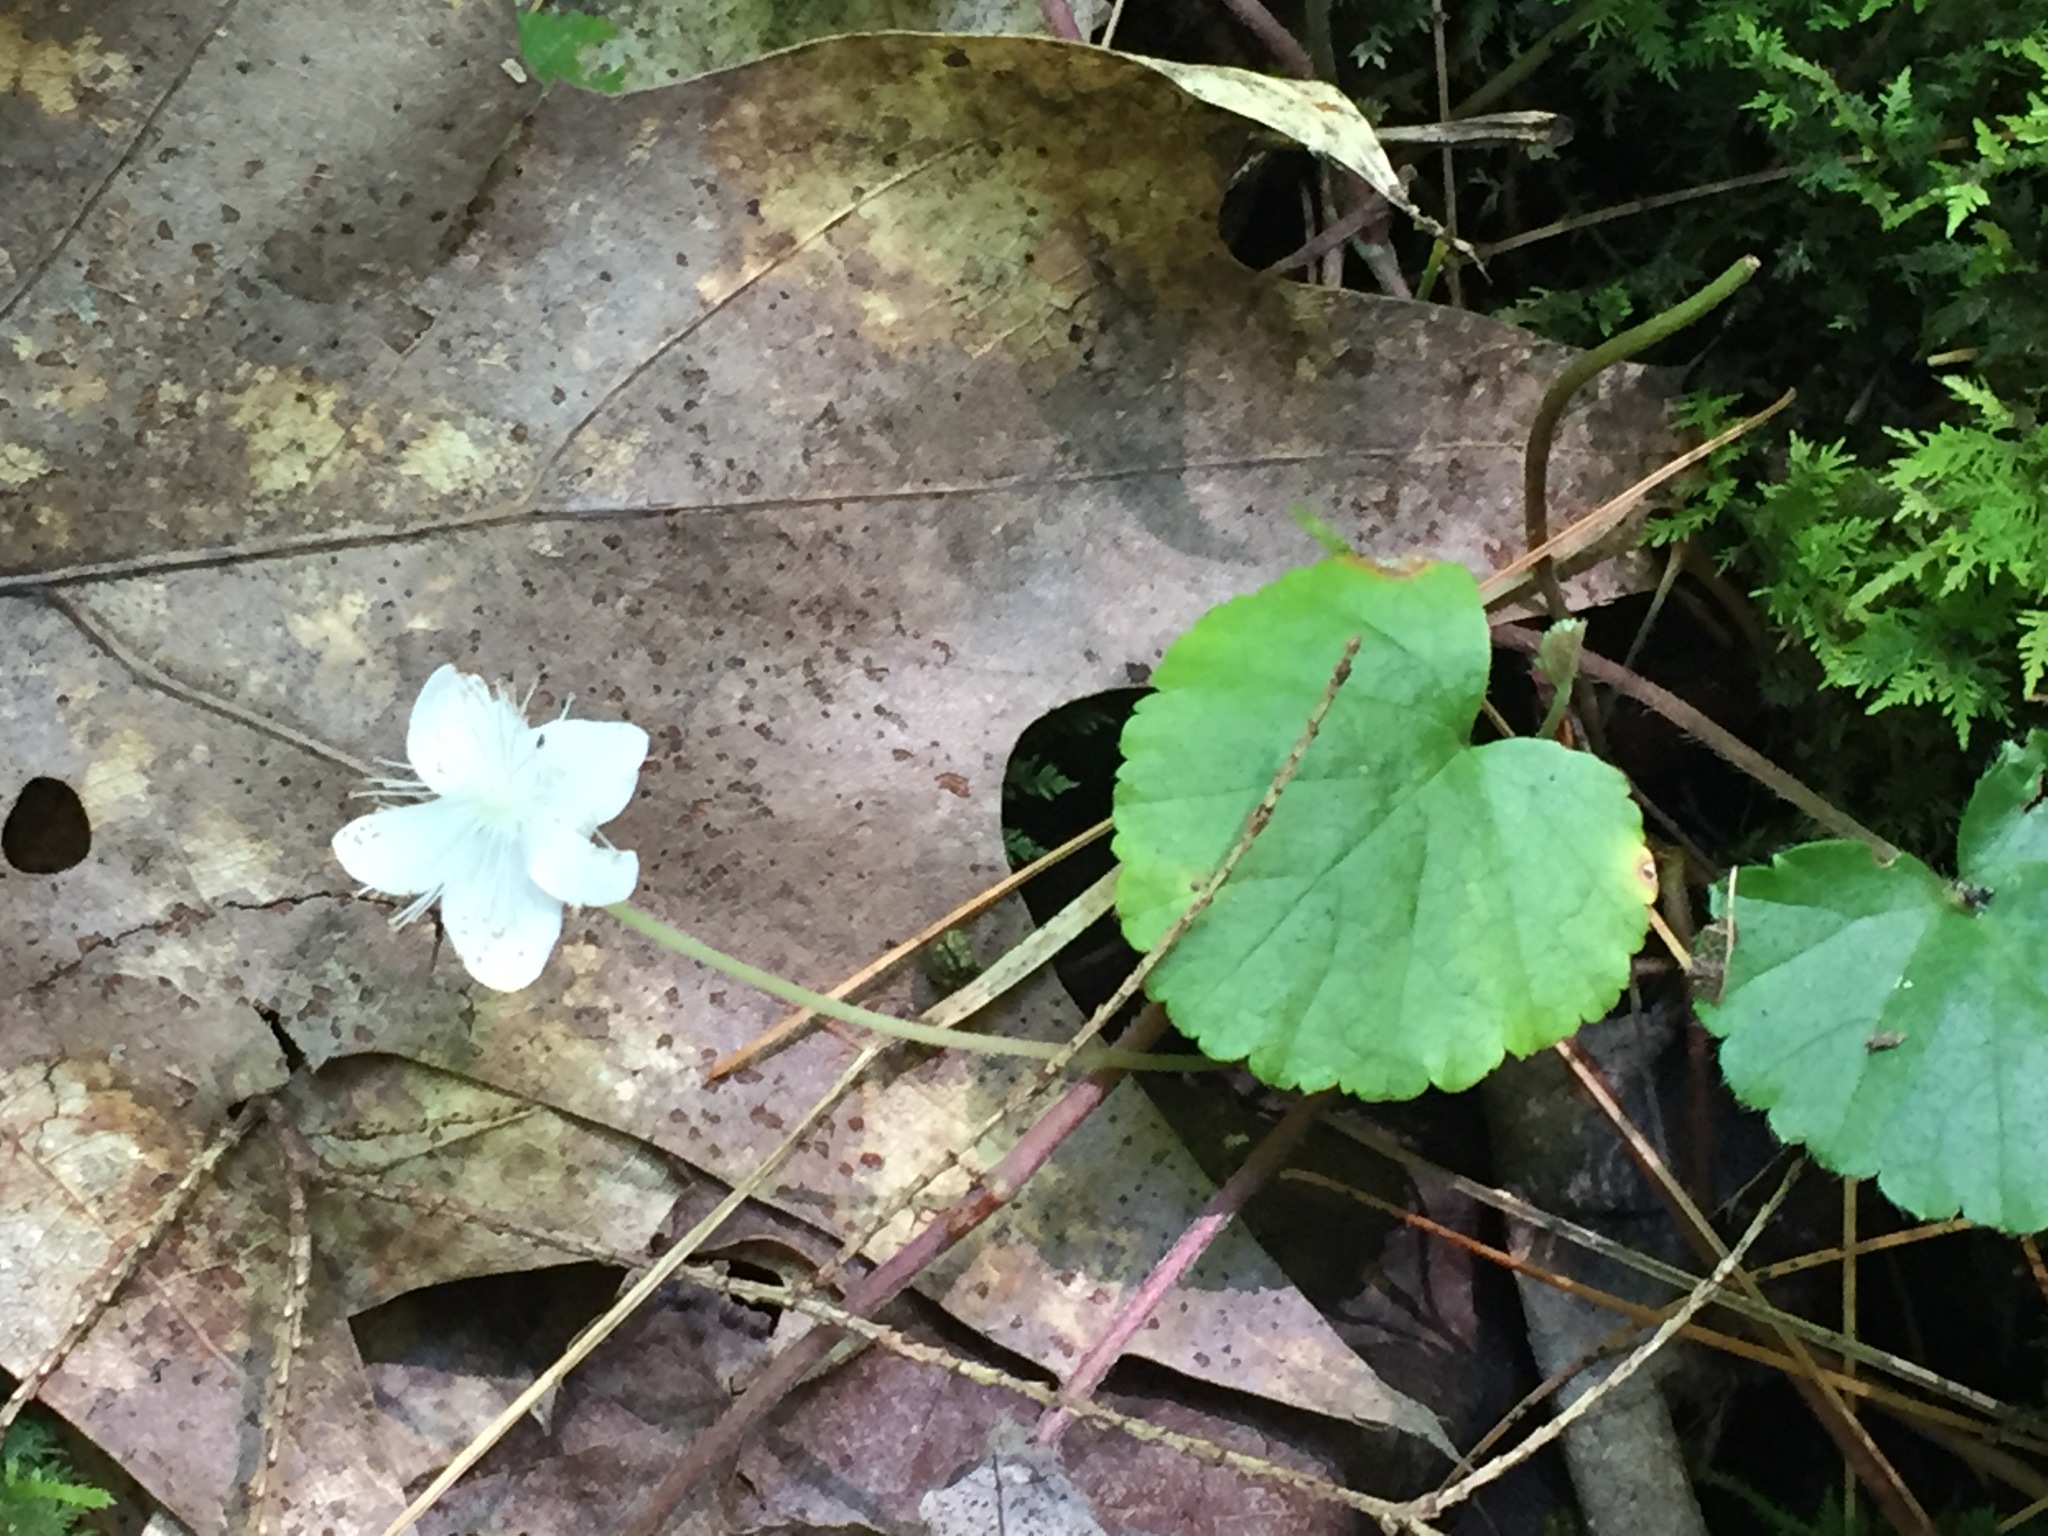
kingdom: Plantae
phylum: Tracheophyta
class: Magnoliopsida
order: Rosales
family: Rosaceae
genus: Dalibarda
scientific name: Dalibarda repens
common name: Dewdrop
